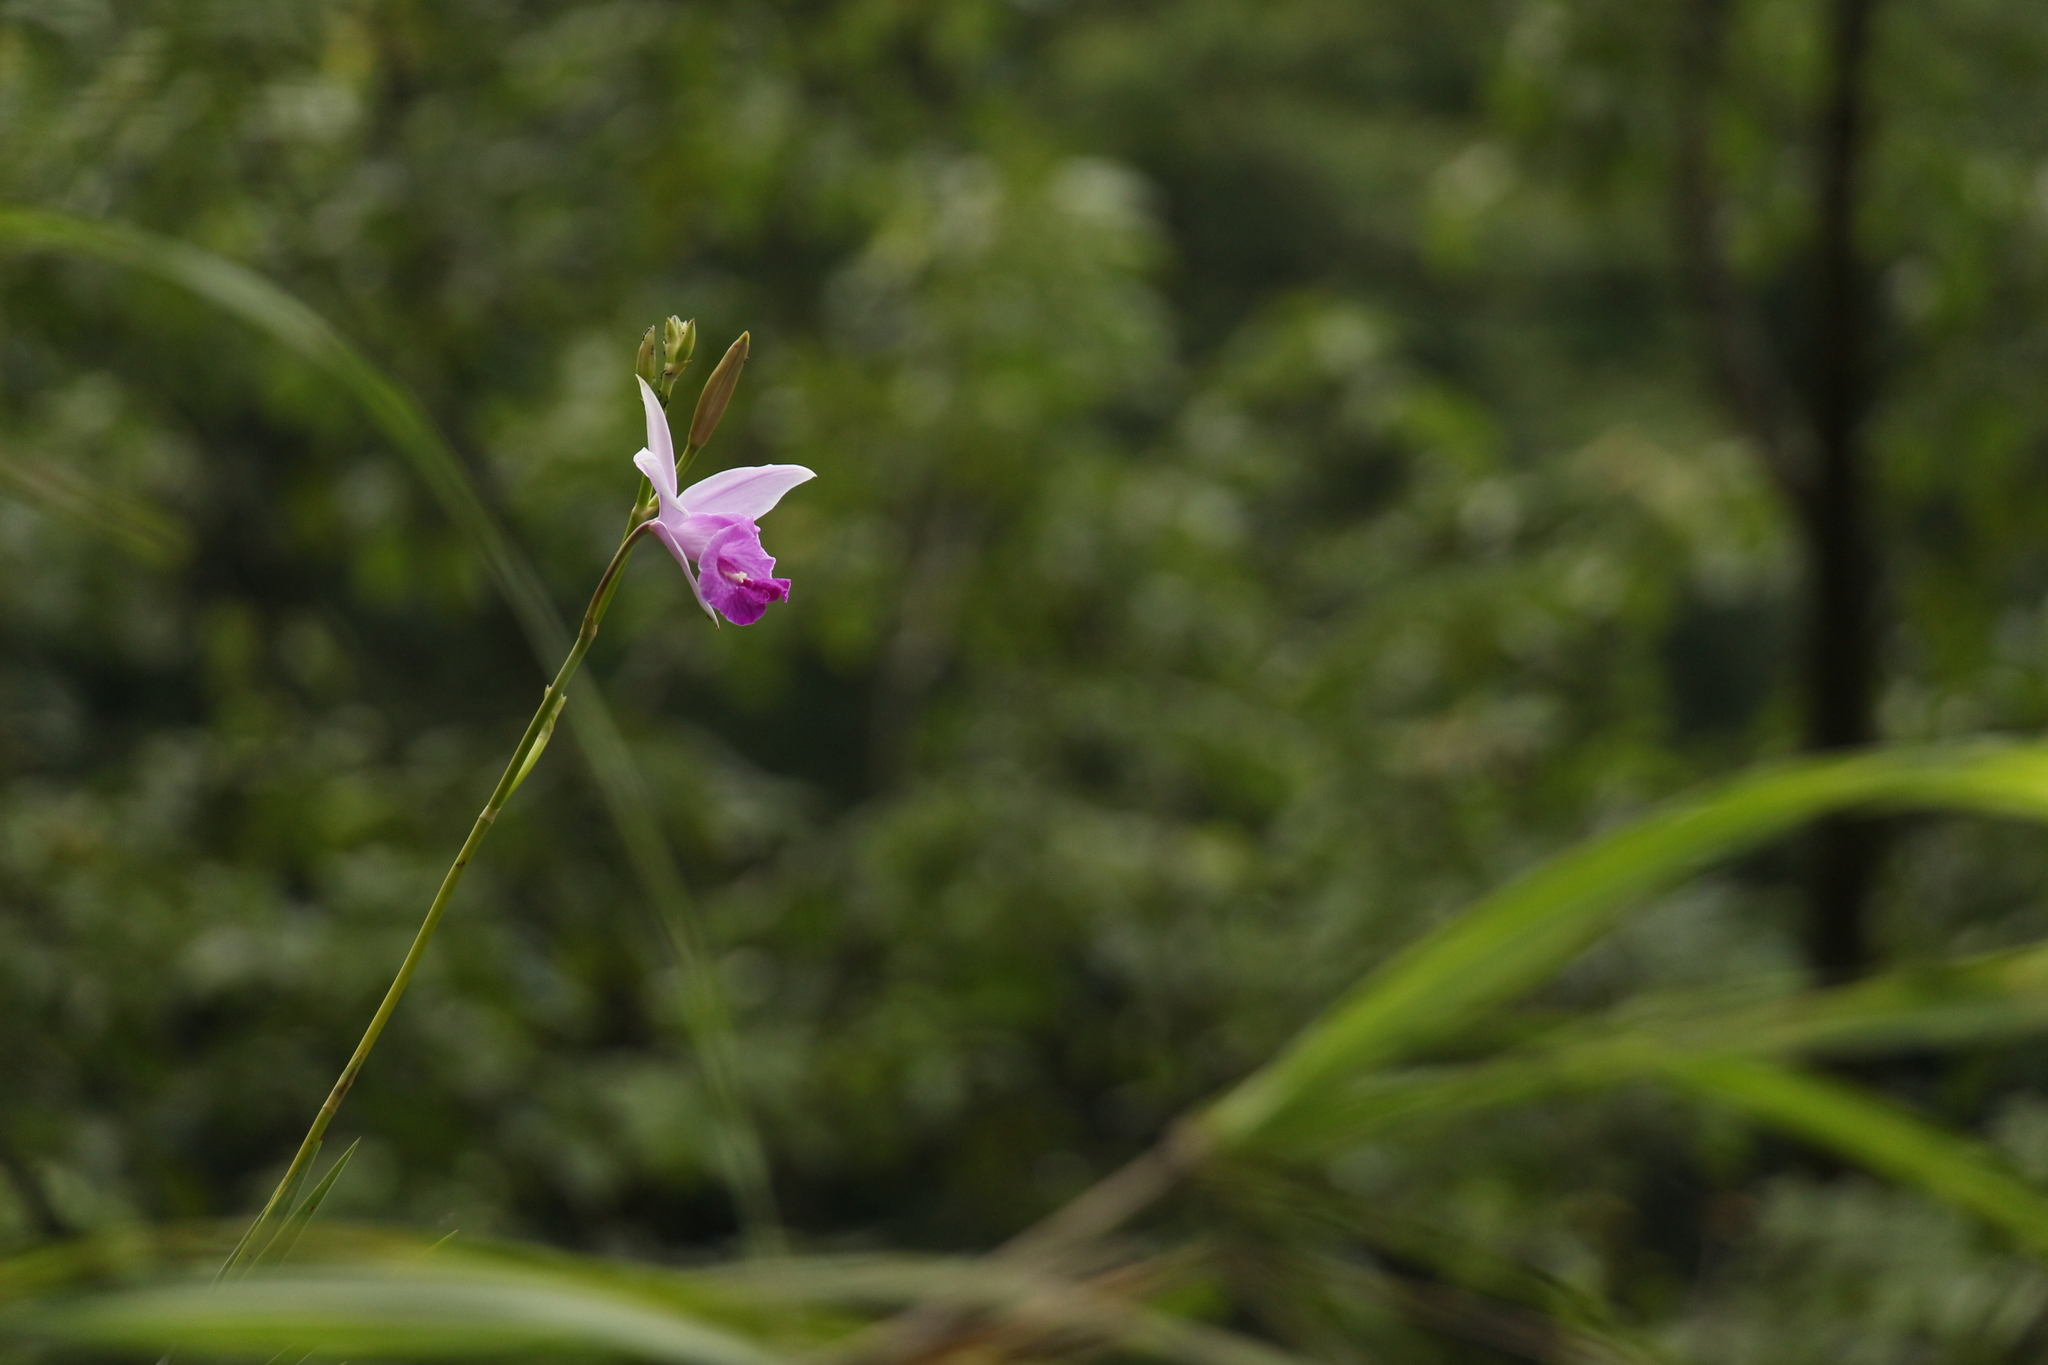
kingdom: Plantae
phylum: Tracheophyta
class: Liliopsida
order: Asparagales
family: Orchidaceae
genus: Arundina
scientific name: Arundina graminifolia
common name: Bamboo orchid
